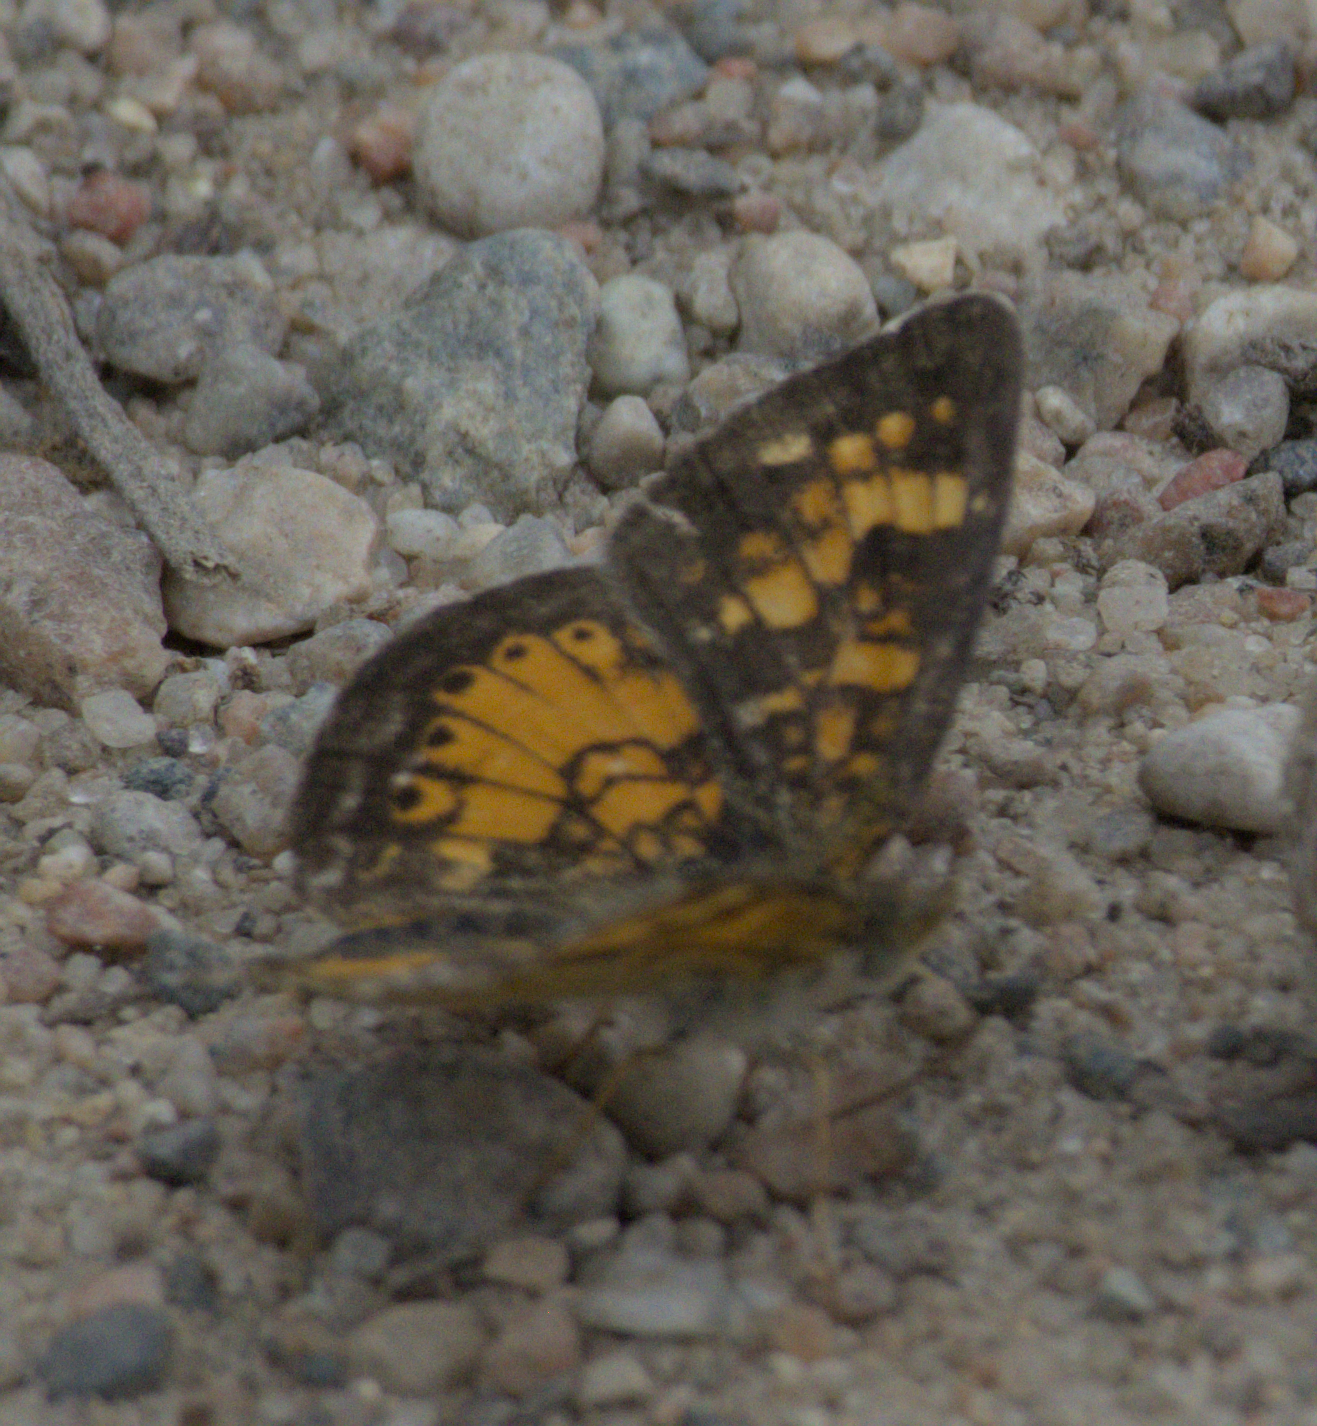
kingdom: Animalia
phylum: Arthropoda
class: Insecta
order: Lepidoptera
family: Nymphalidae
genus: Phyciodes
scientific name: Phyciodes tharos
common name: Pearl crescent
